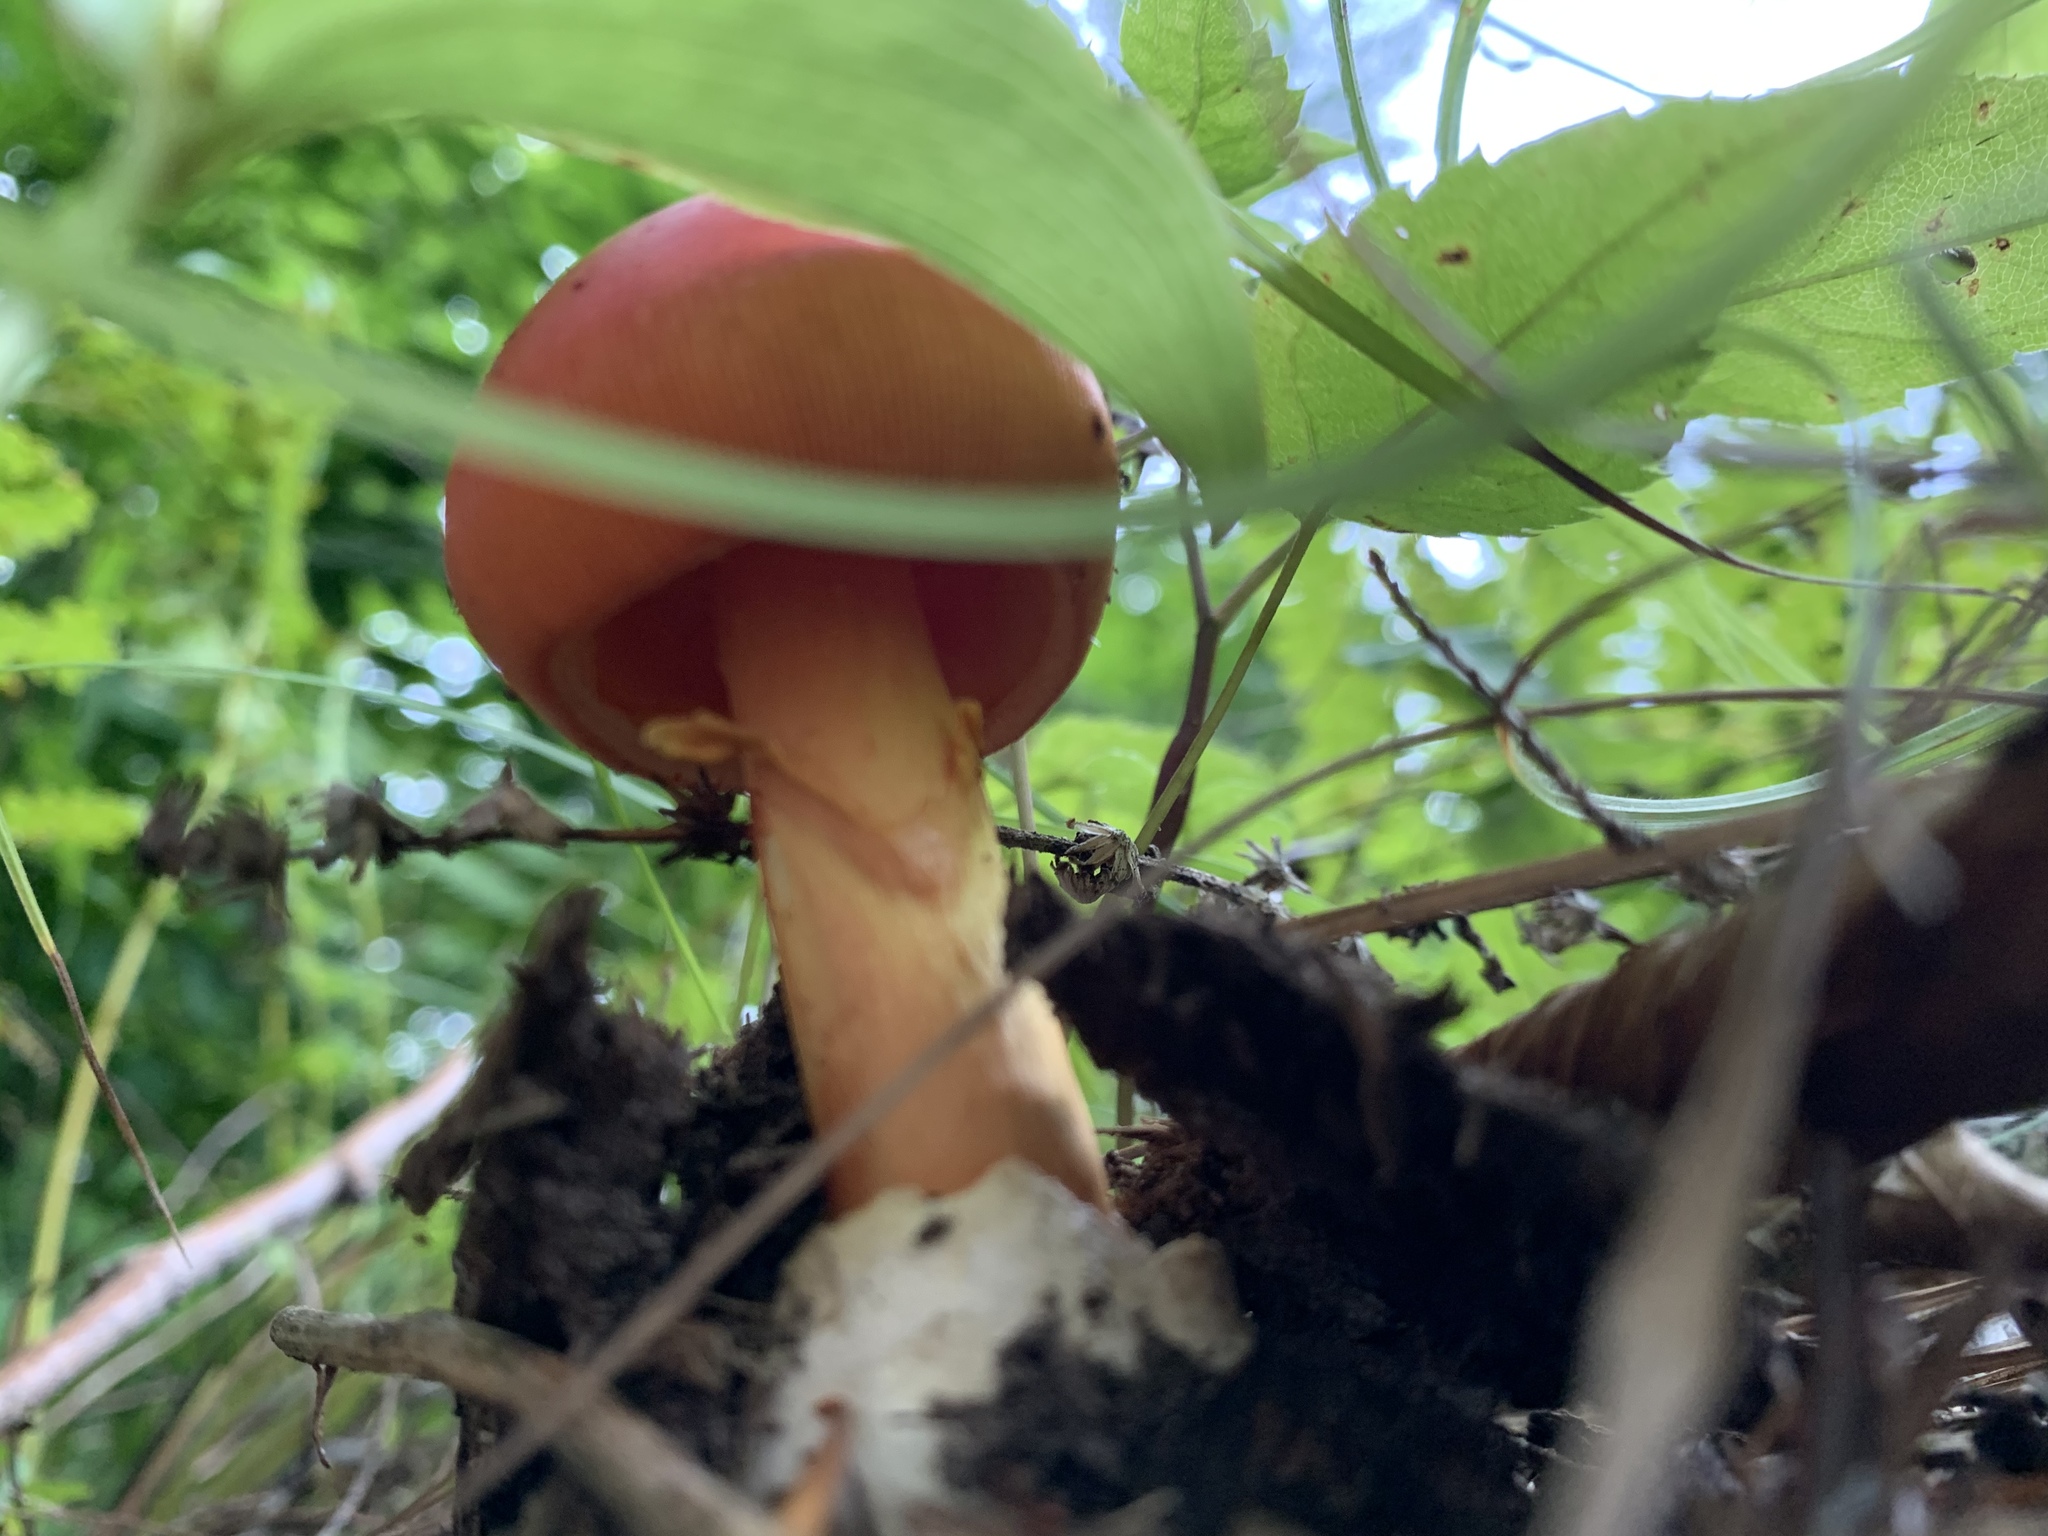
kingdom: Fungi
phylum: Basidiomycota
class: Agaricomycetes
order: Agaricales
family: Amanitaceae
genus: Amanita
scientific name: Amanita jacksonii
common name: Jackson's slender caesar
